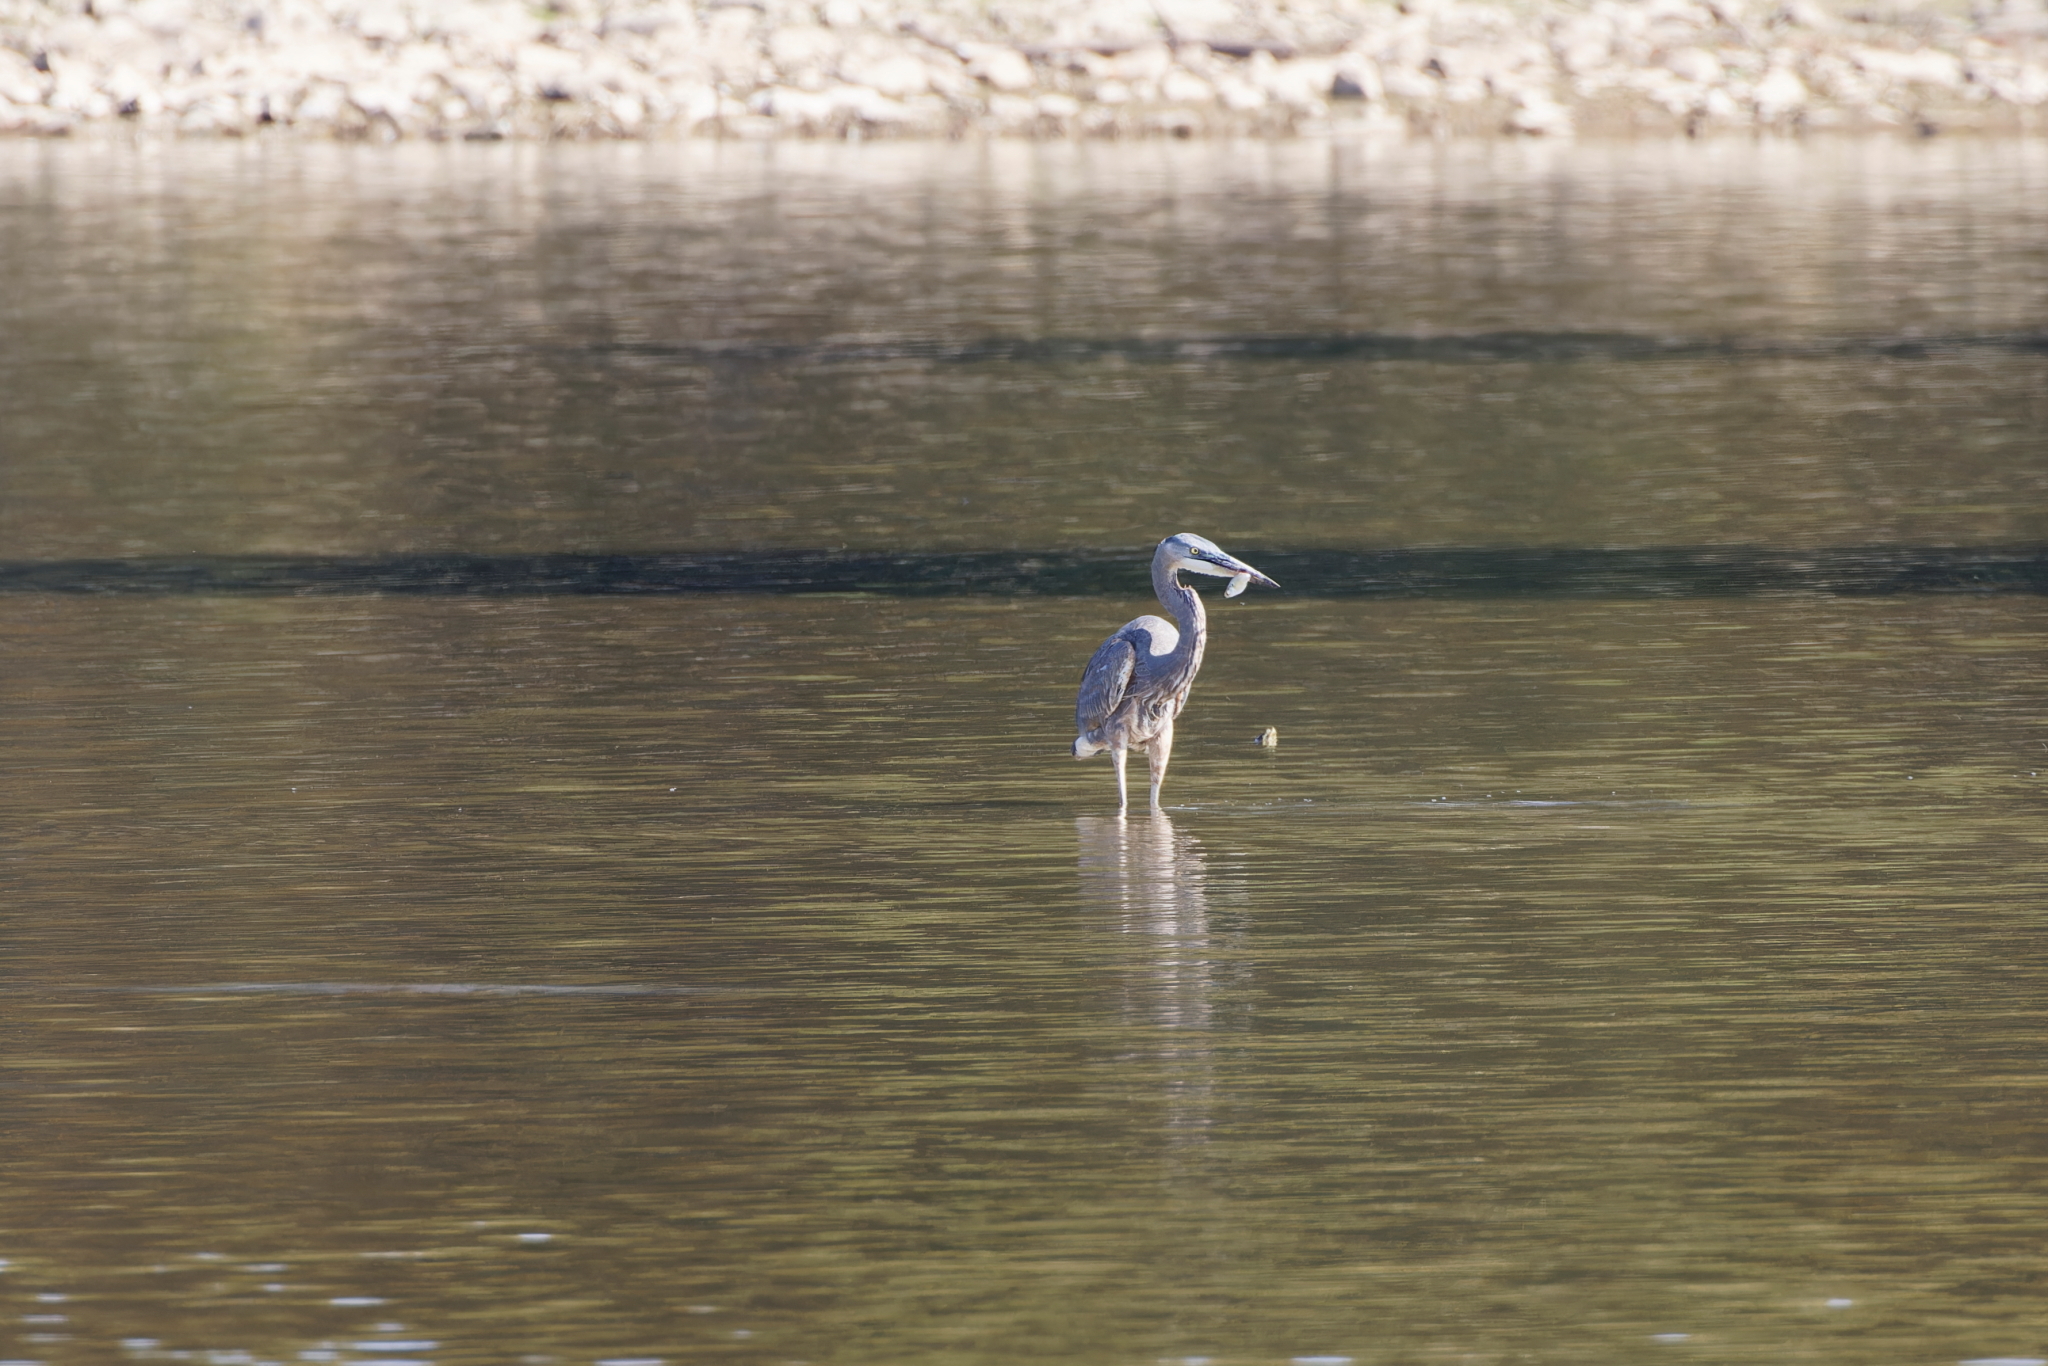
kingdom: Animalia
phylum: Chordata
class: Aves
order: Pelecaniformes
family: Ardeidae
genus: Ardea
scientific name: Ardea herodias
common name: Great blue heron
